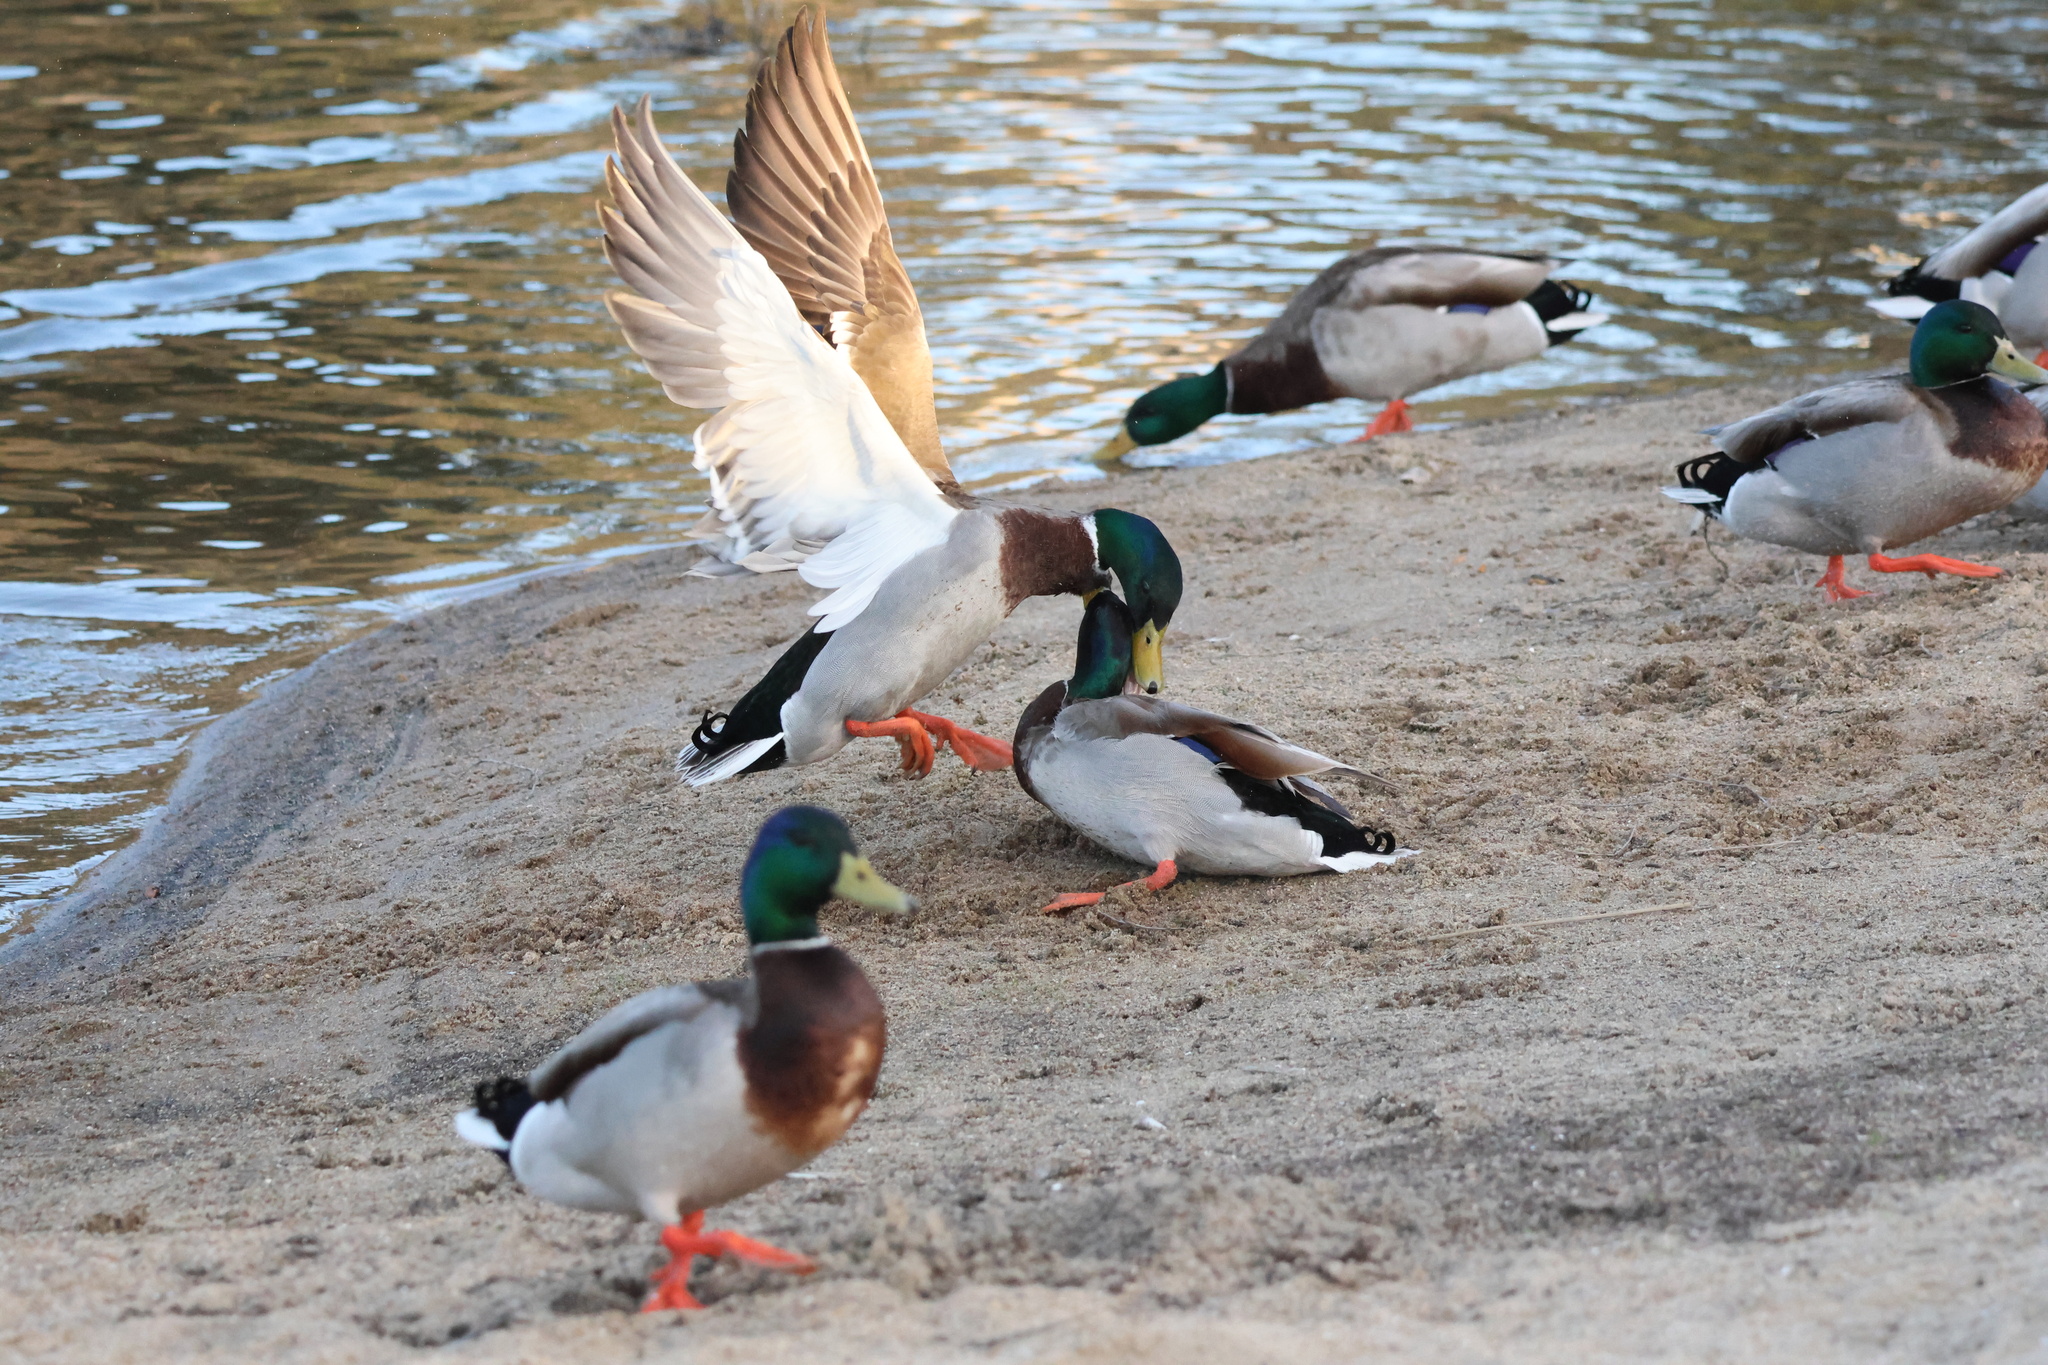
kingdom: Animalia
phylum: Chordata
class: Aves
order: Anseriformes
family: Anatidae
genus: Anas
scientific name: Anas platyrhynchos
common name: Mallard
